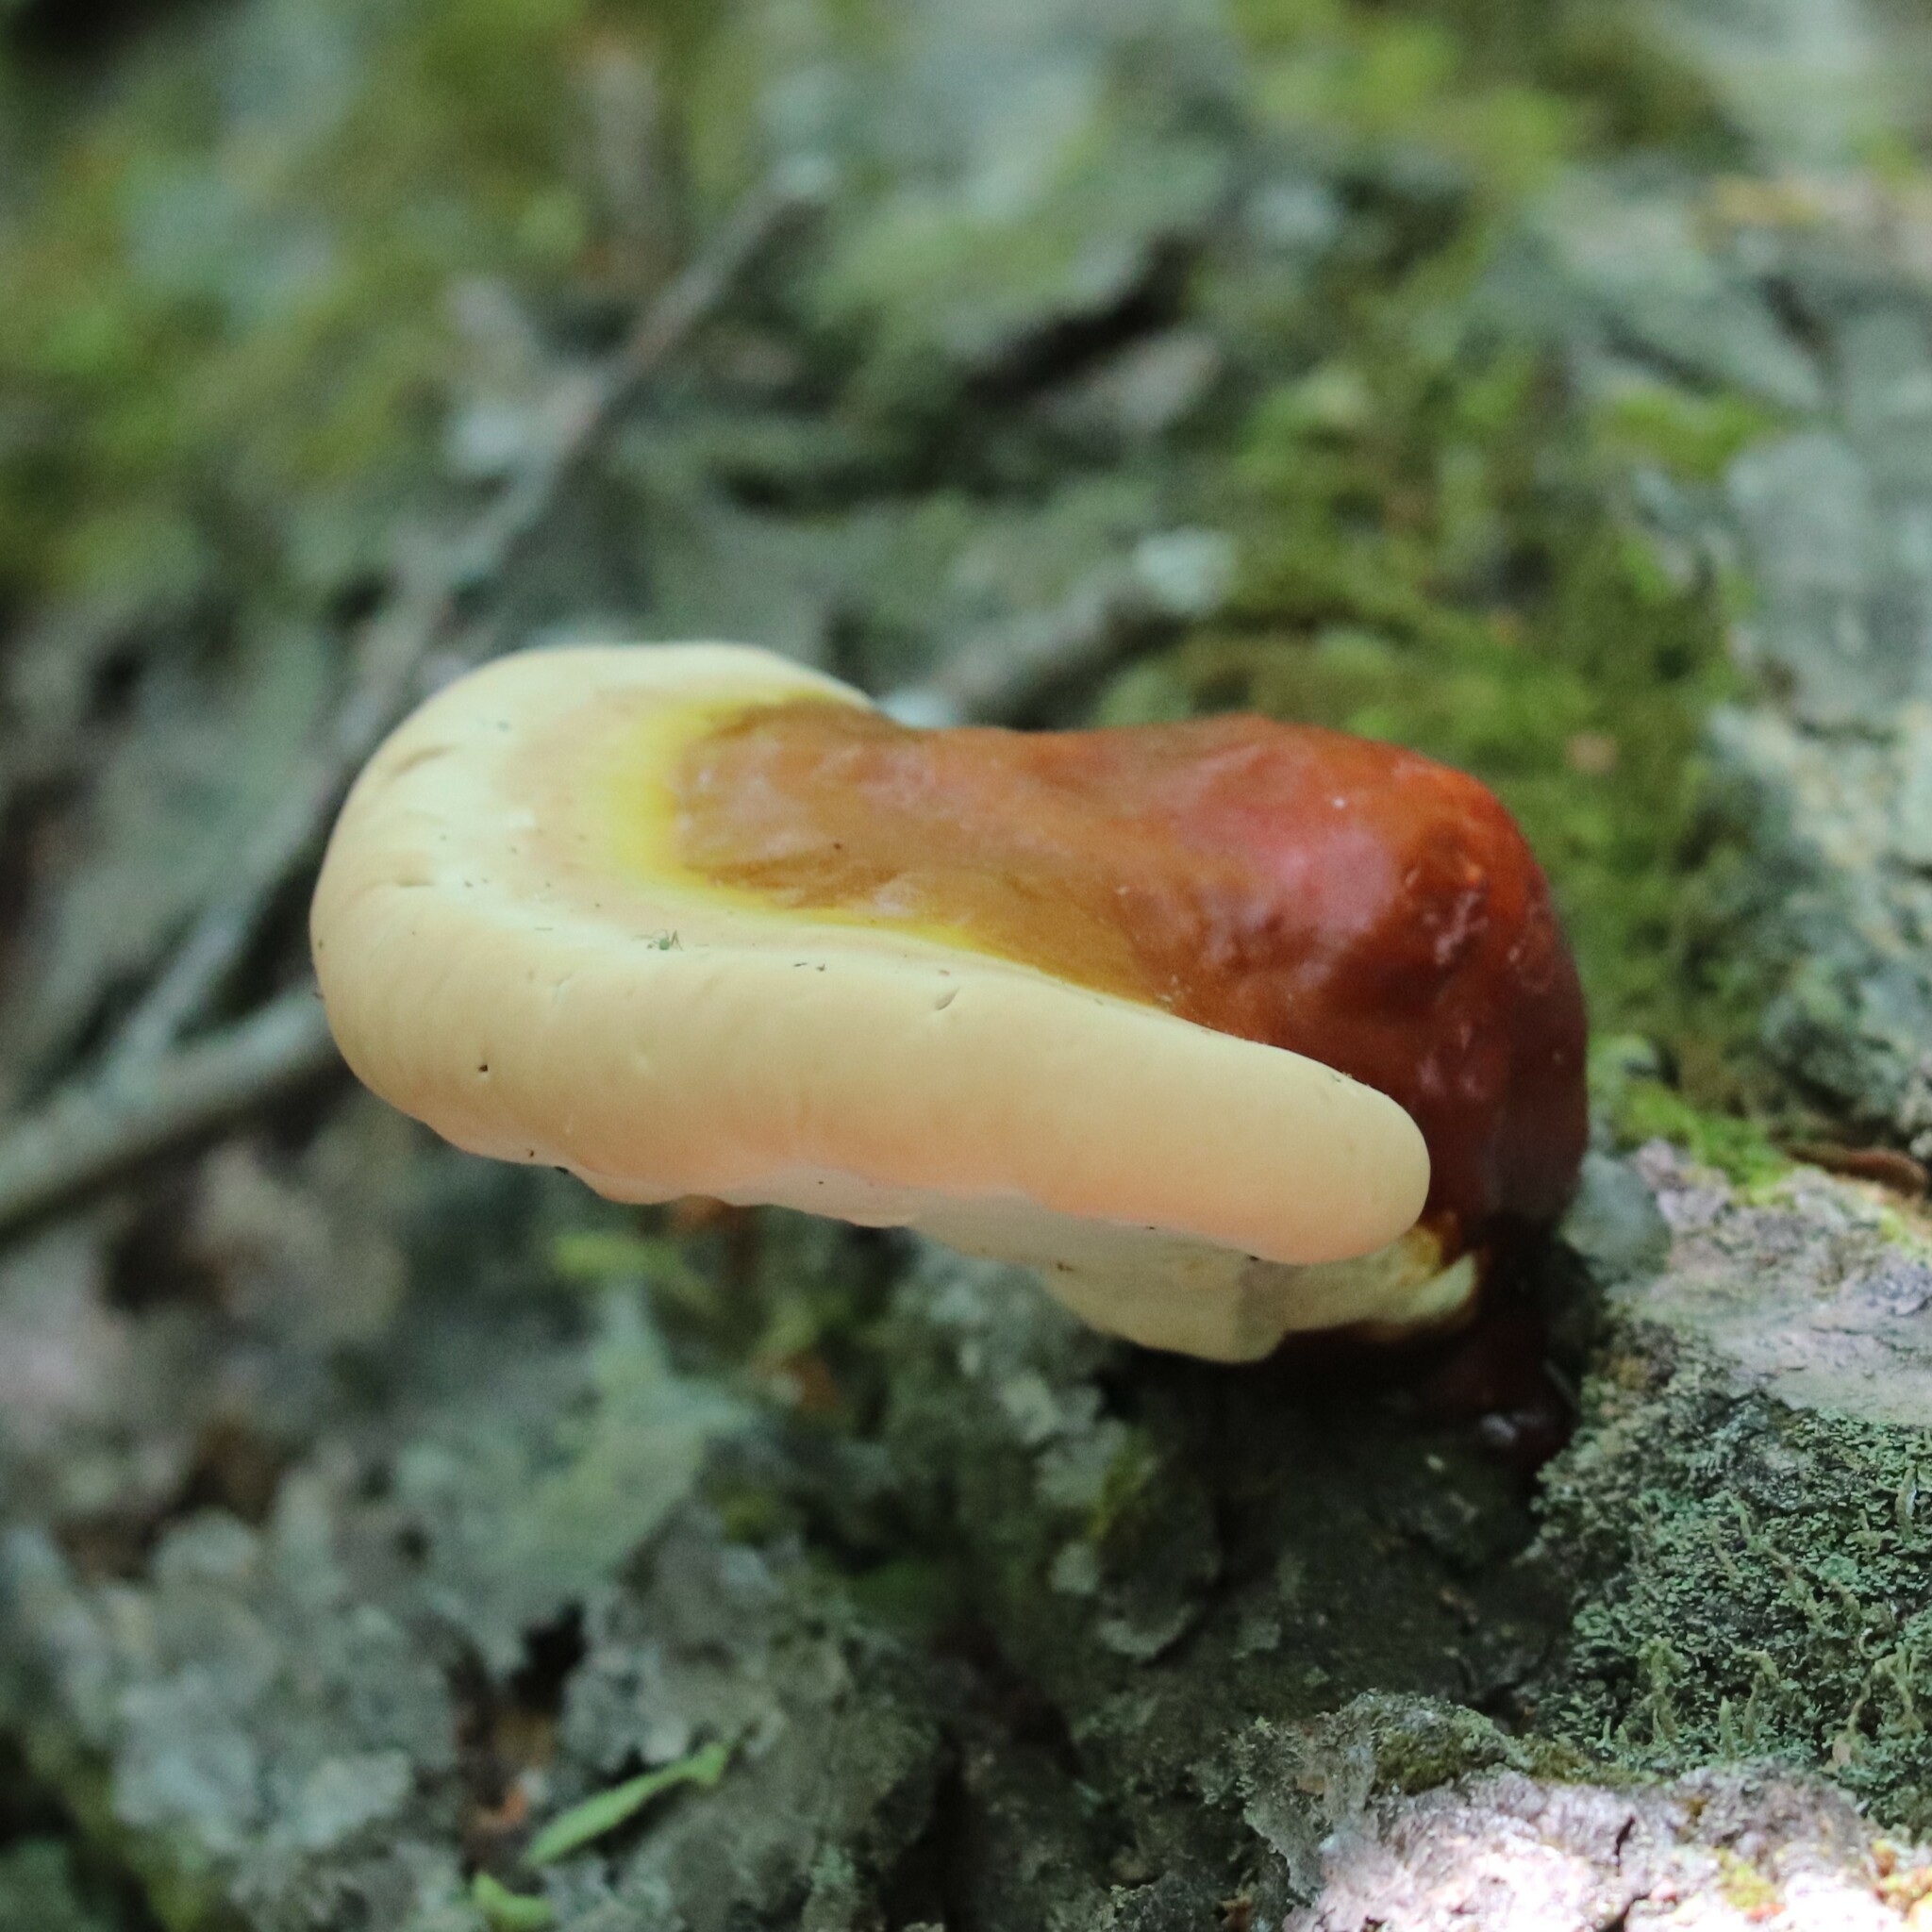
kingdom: Fungi
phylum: Basidiomycota
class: Agaricomycetes
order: Polyporales
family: Polyporaceae
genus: Ganoderma
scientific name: Ganoderma tsugae
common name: Hemlock varnish shelf
